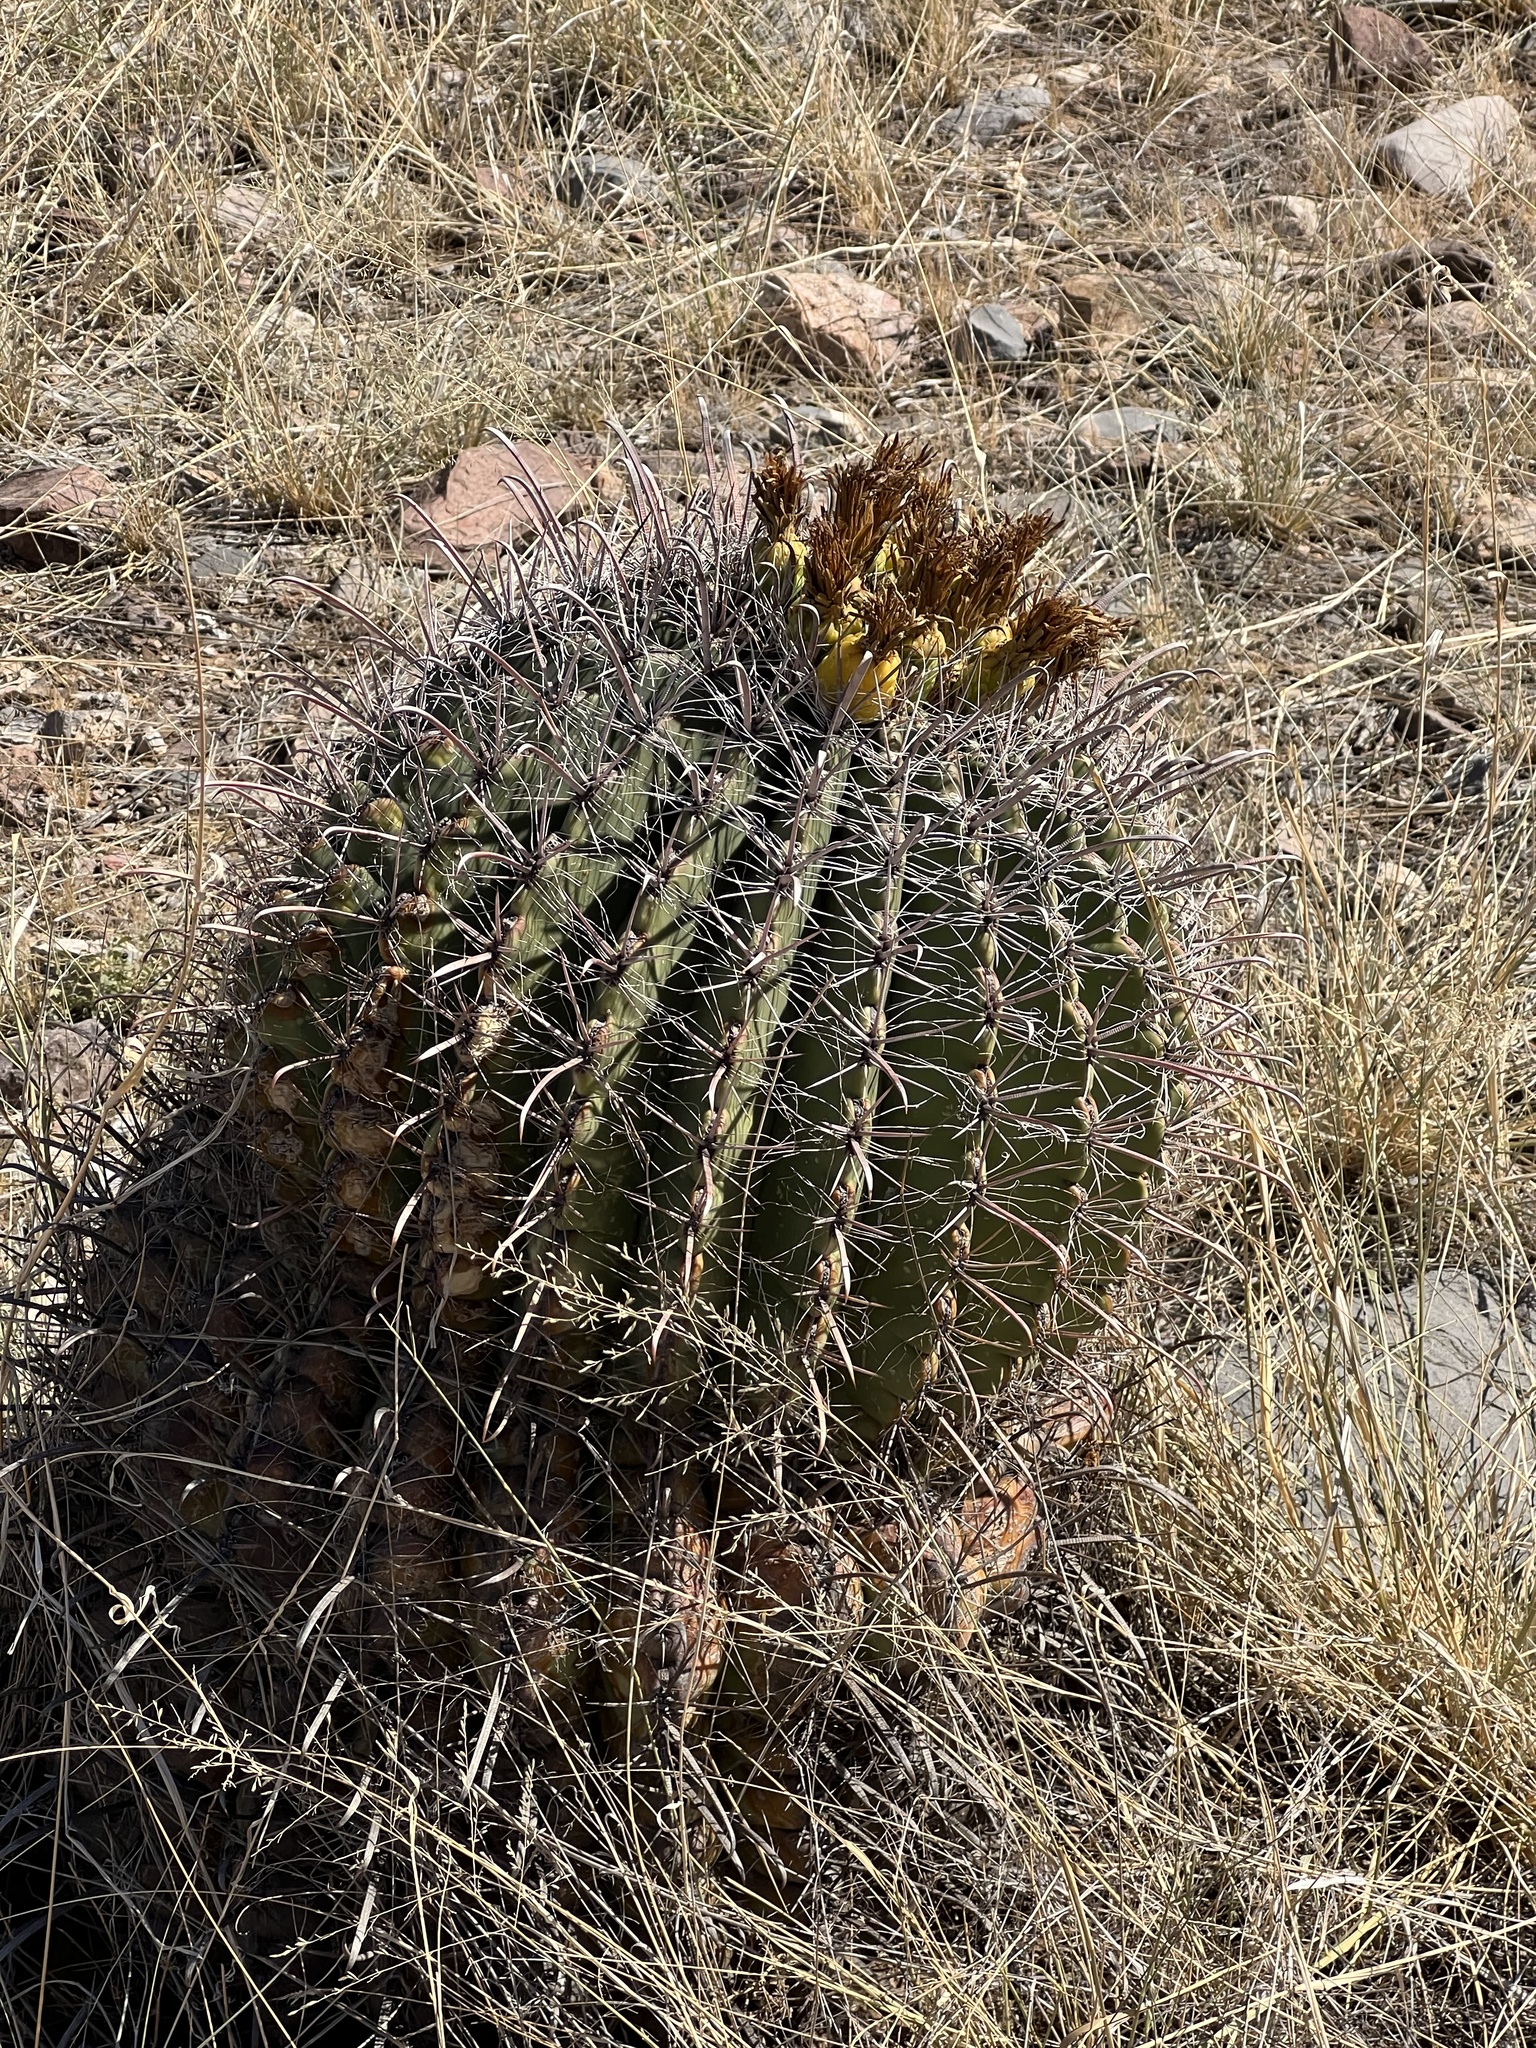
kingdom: Plantae
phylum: Tracheophyta
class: Magnoliopsida
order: Caryophyllales
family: Cactaceae
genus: Ferocactus
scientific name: Ferocactus wislizeni
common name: Candy barrel cactus
